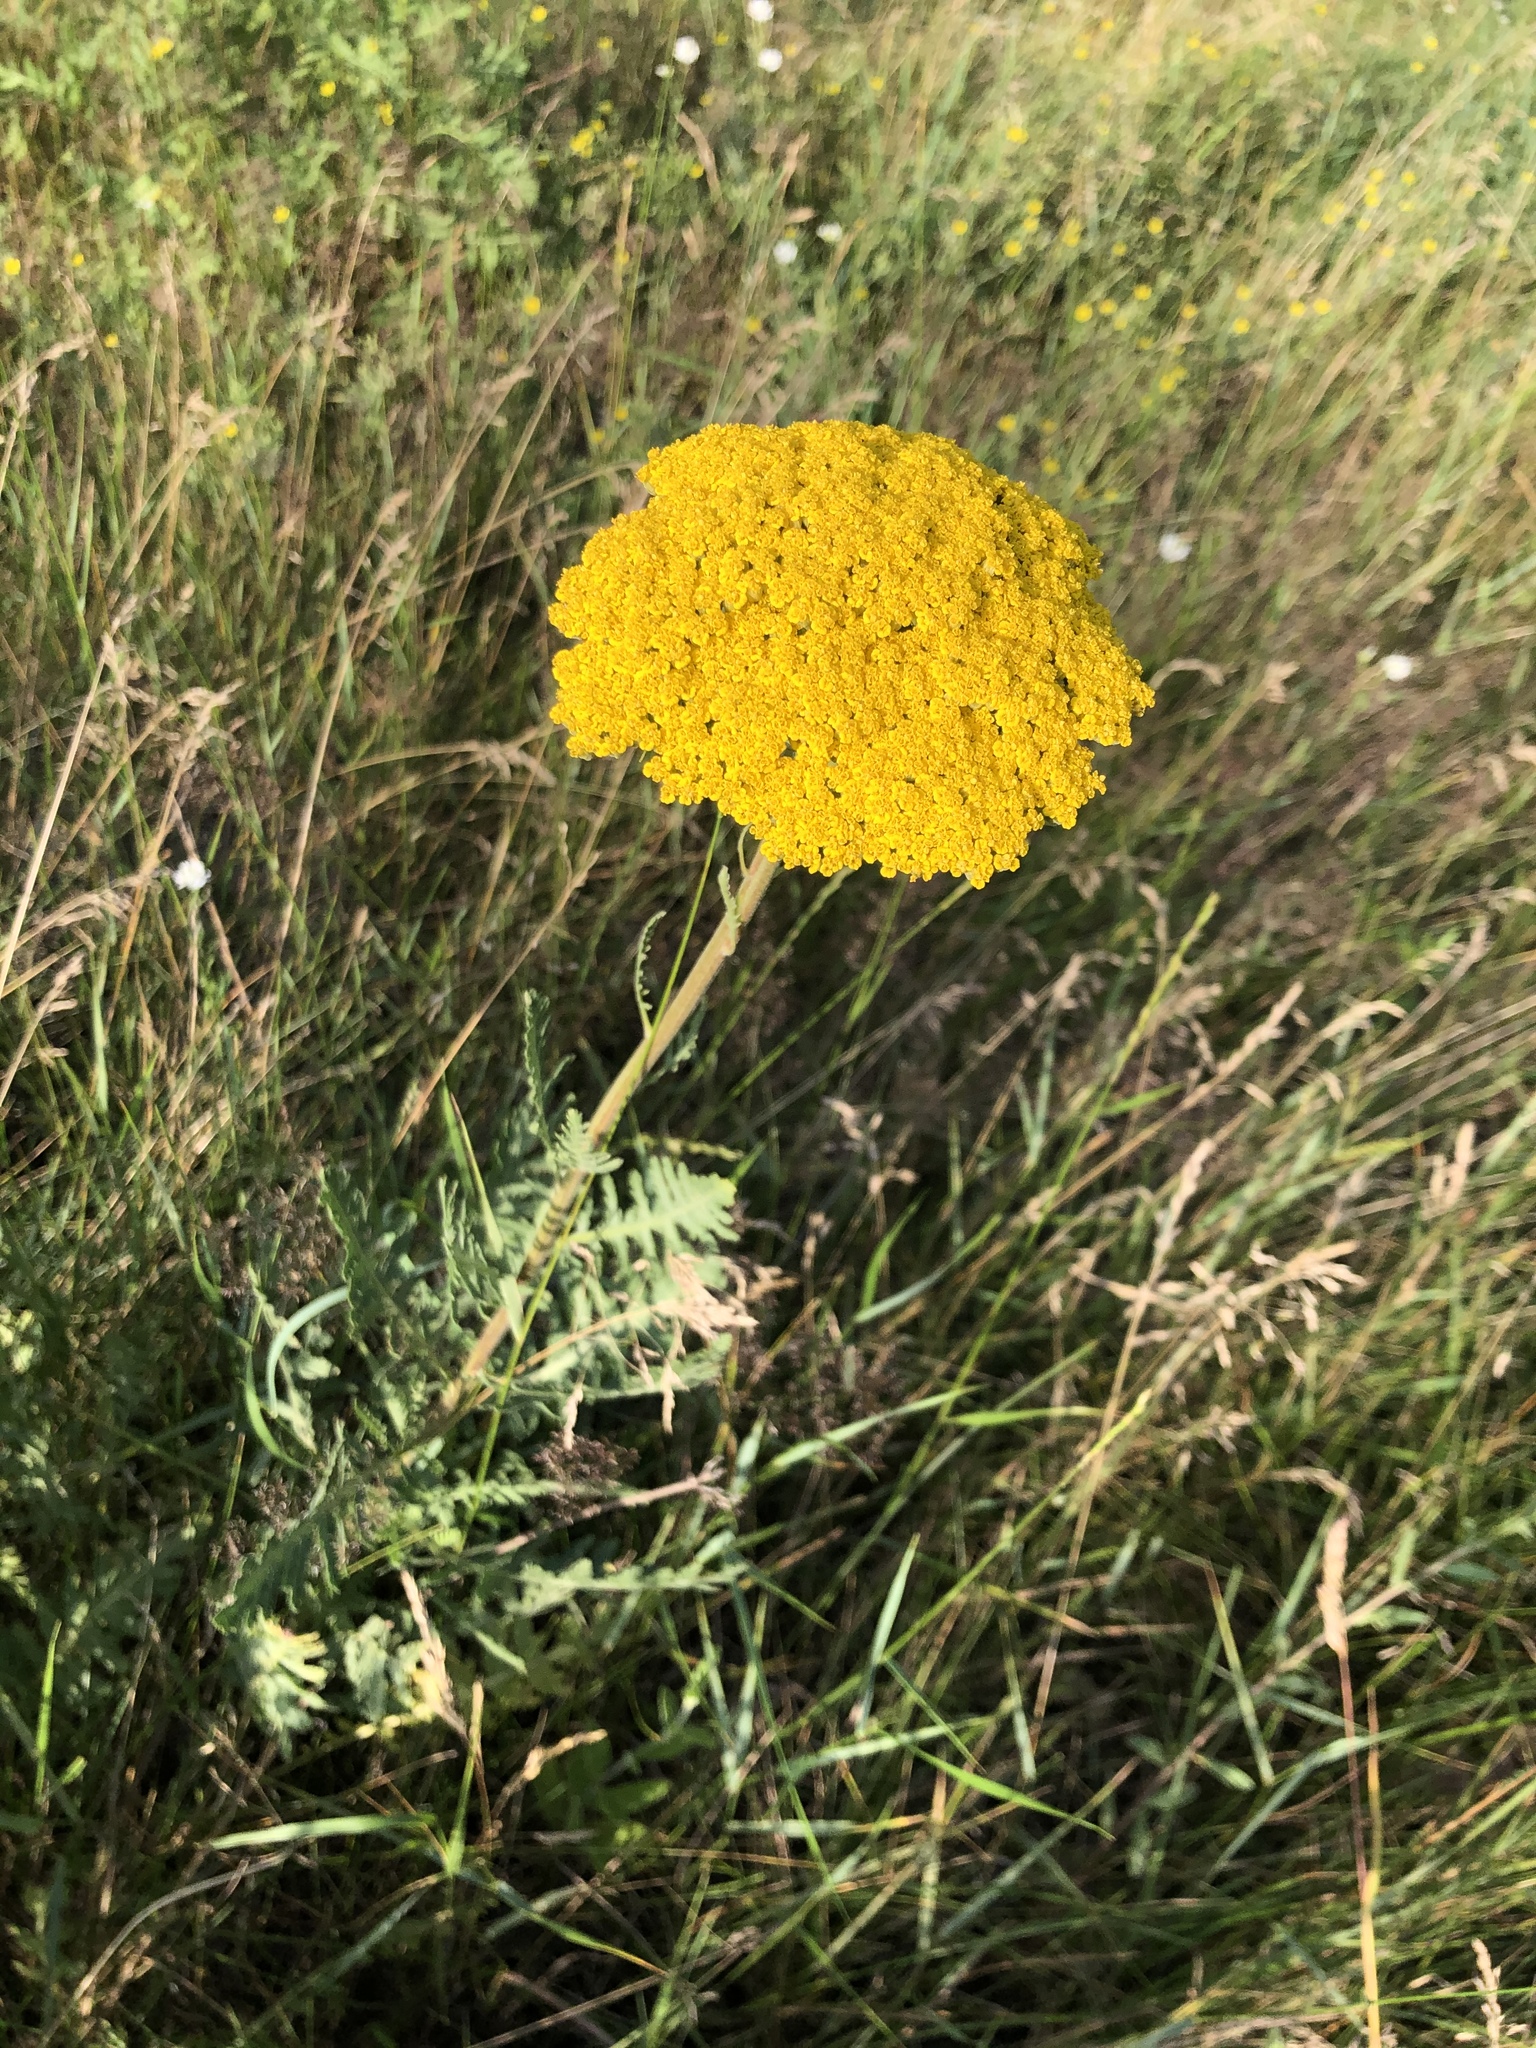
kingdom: Plantae
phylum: Tracheophyta
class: Magnoliopsida
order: Asterales
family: Asteraceae
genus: Achillea
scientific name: Achillea filipendulina
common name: Fernleaf yarrow
